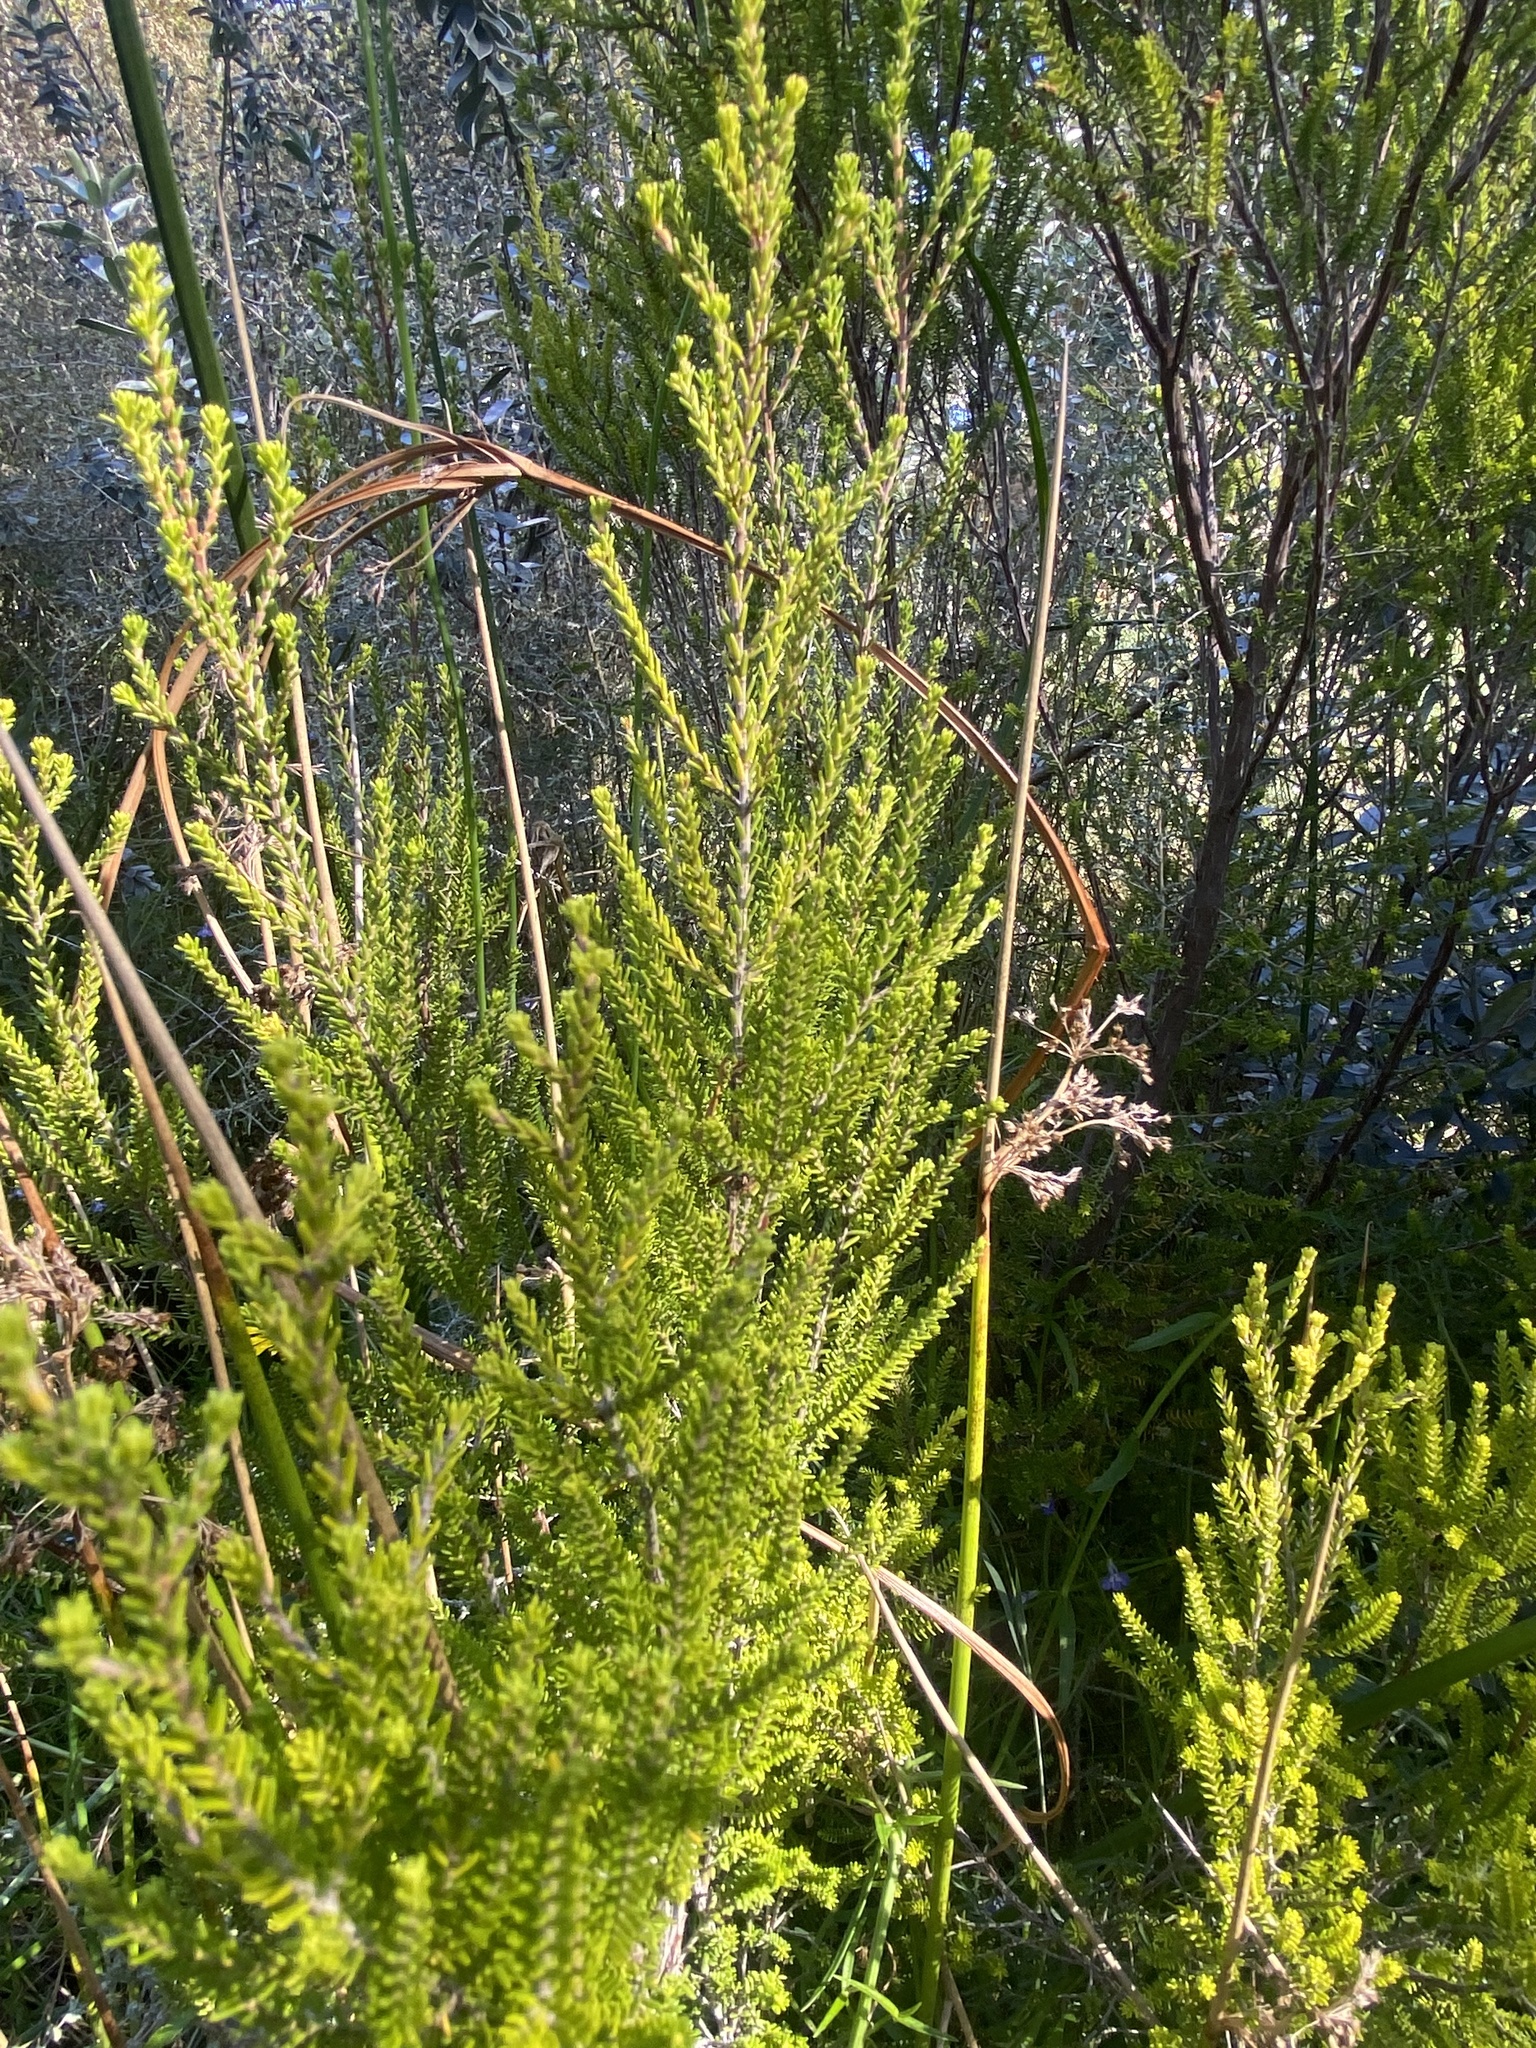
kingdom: Plantae
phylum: Tracheophyta
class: Magnoliopsida
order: Ericales
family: Ericaceae
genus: Erica
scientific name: Erica tristis
